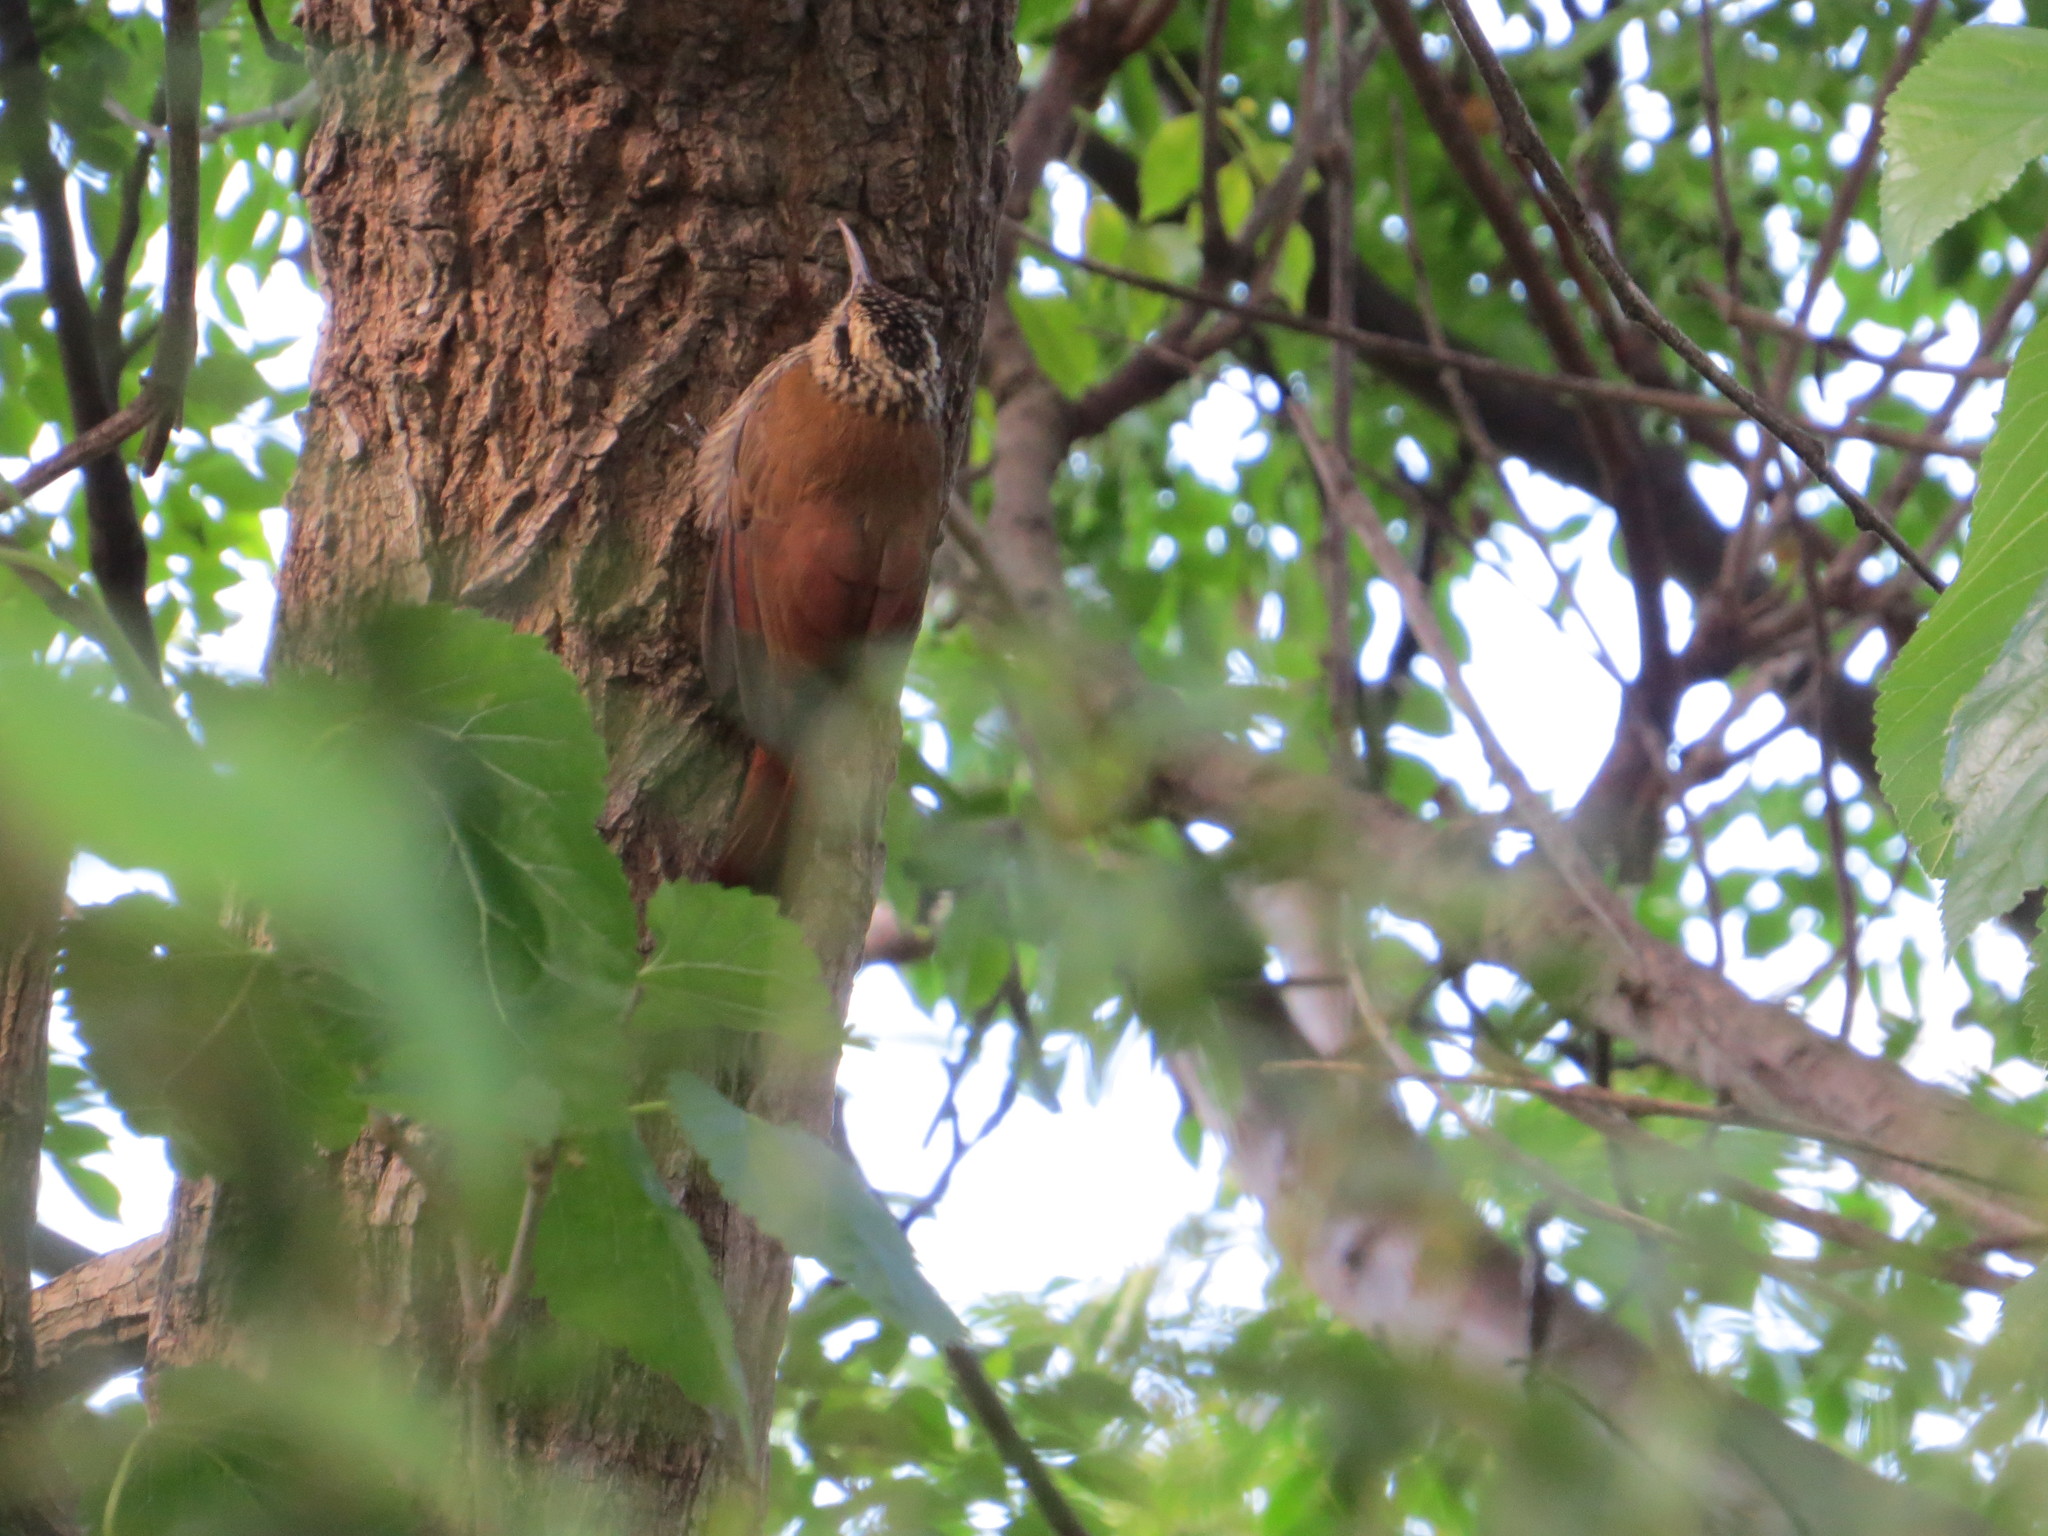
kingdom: Animalia
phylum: Chordata
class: Aves
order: Passeriformes
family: Furnariidae
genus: Lepidocolaptes
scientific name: Lepidocolaptes angustirostris
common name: Narrow-billed woodcreeper
